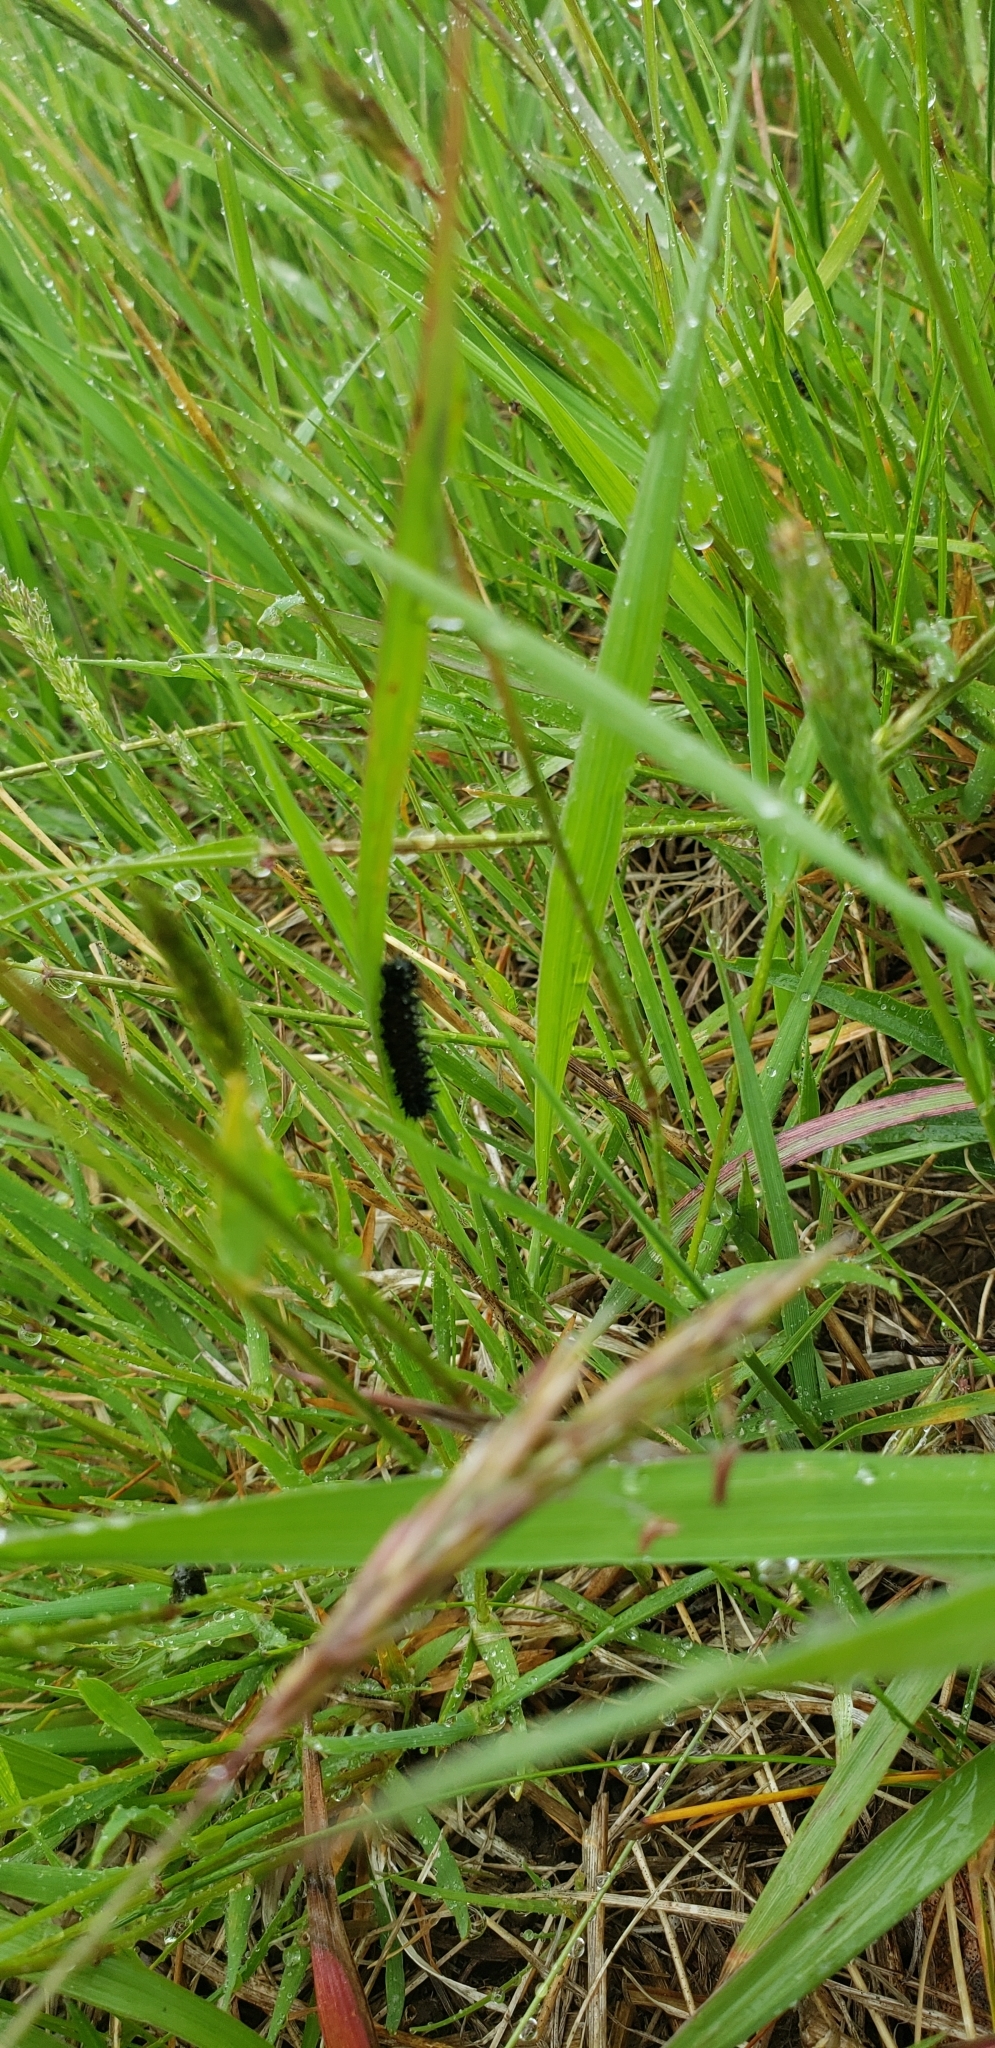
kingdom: Animalia
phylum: Arthropoda
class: Insecta
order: Lepidoptera
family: Nymphalidae
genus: Euphydryas
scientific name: Euphydryas phaeton
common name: Baltimore checkerspot
